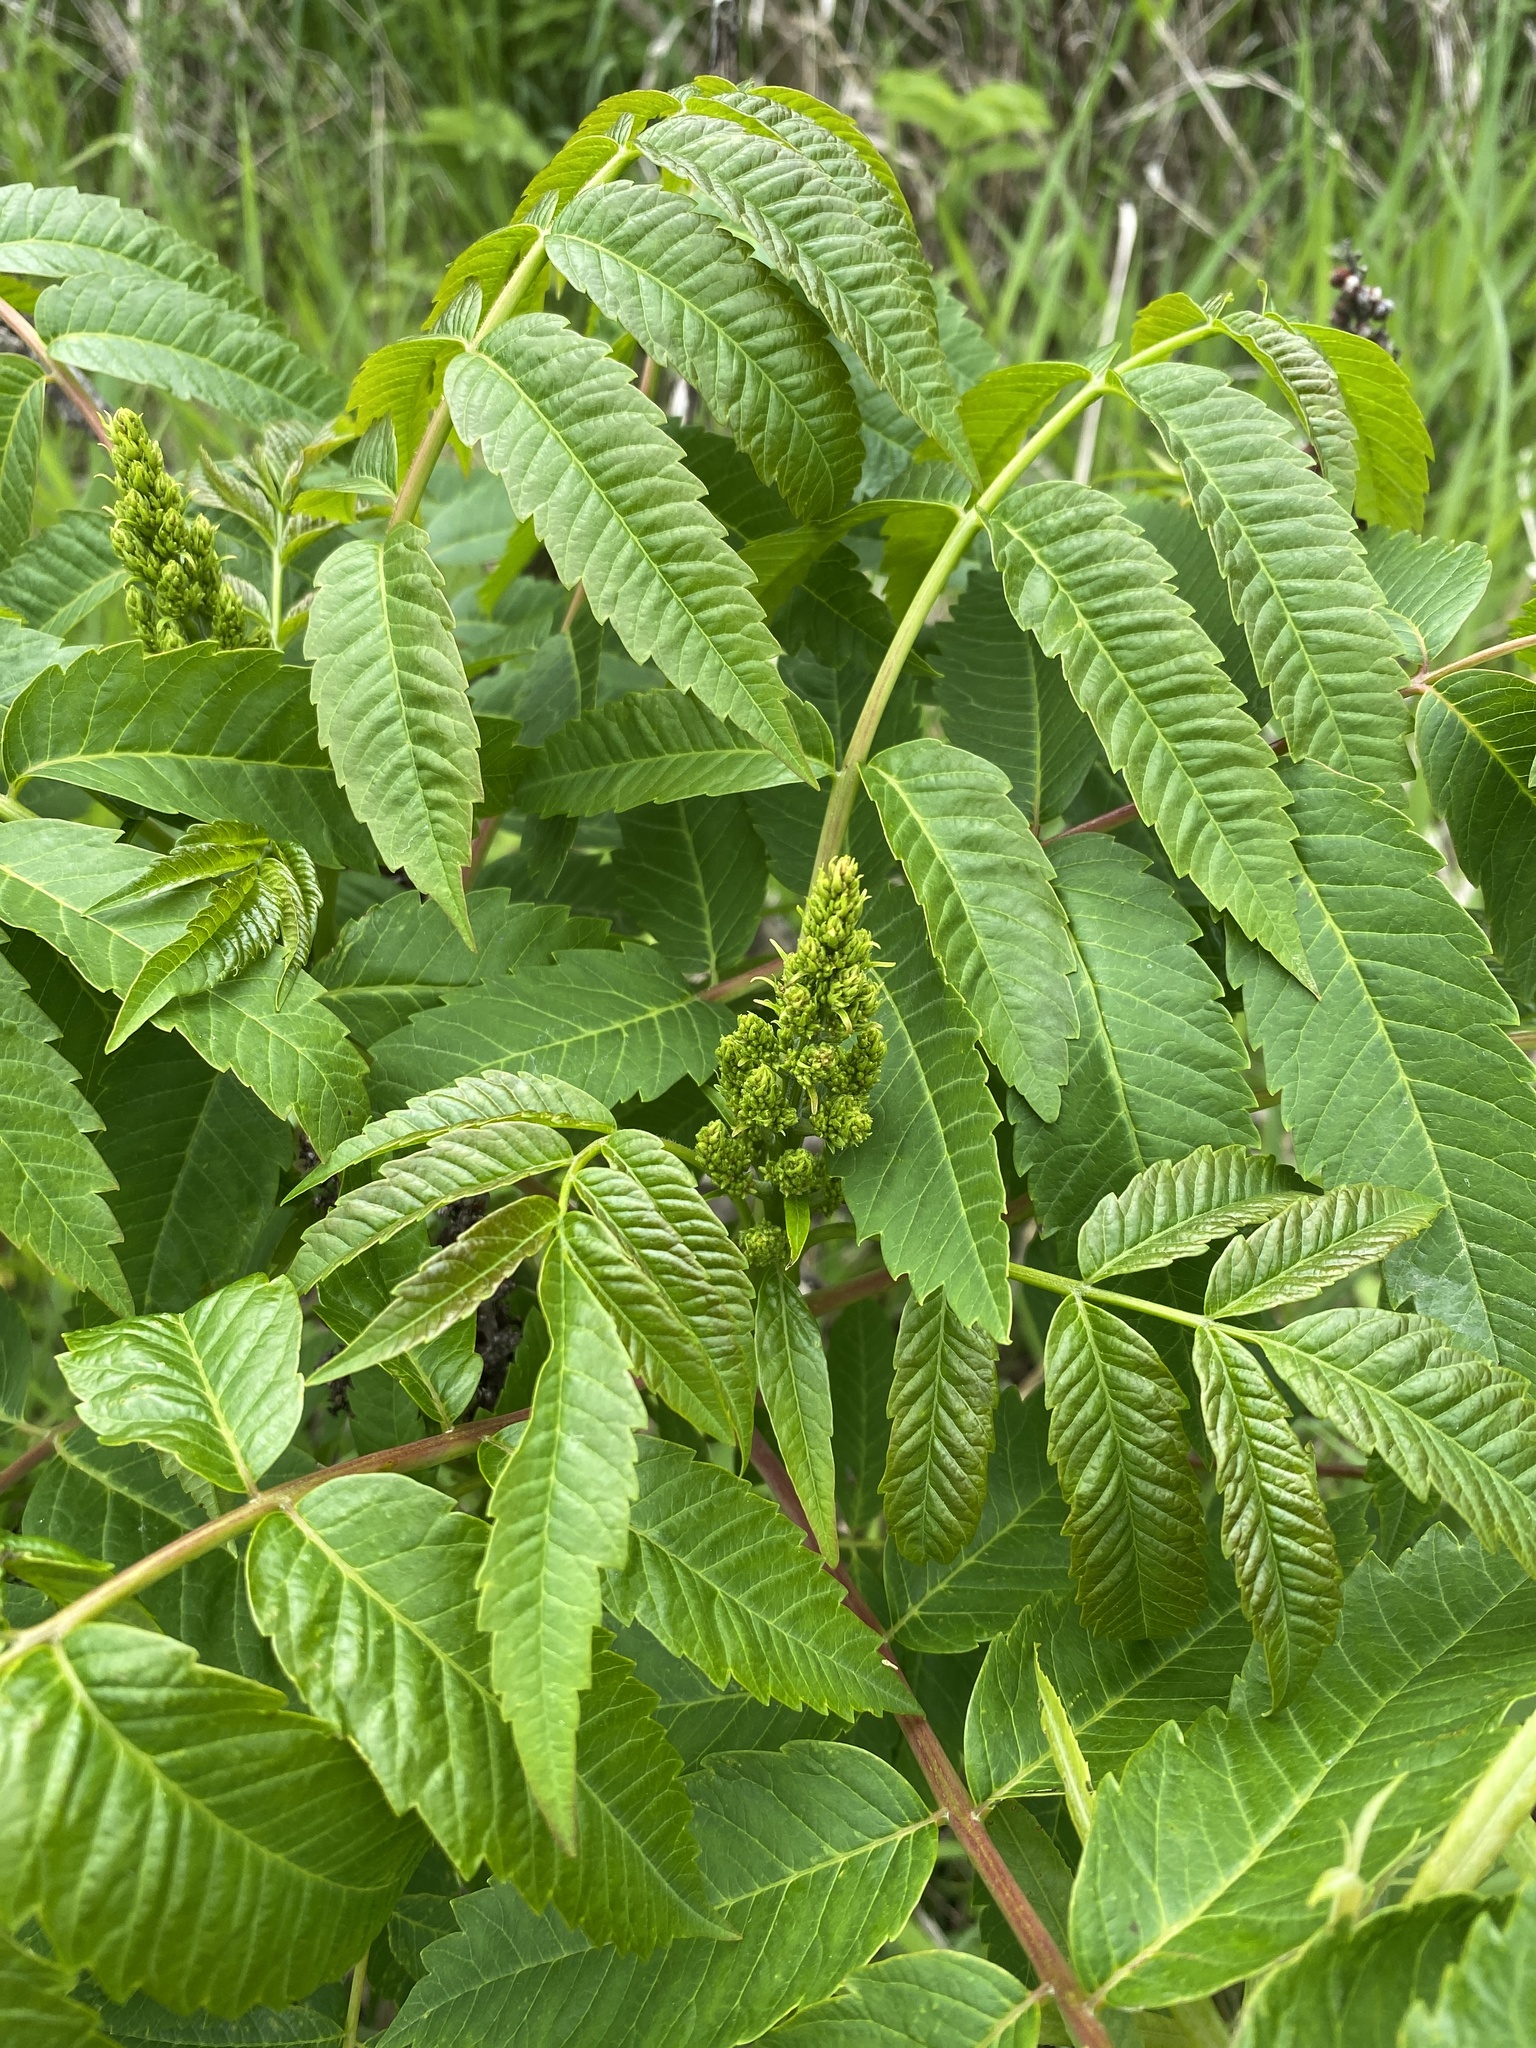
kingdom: Plantae
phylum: Tracheophyta
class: Magnoliopsida
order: Sapindales
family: Anacardiaceae
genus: Rhus
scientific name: Rhus glabra
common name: Scarlet sumac
